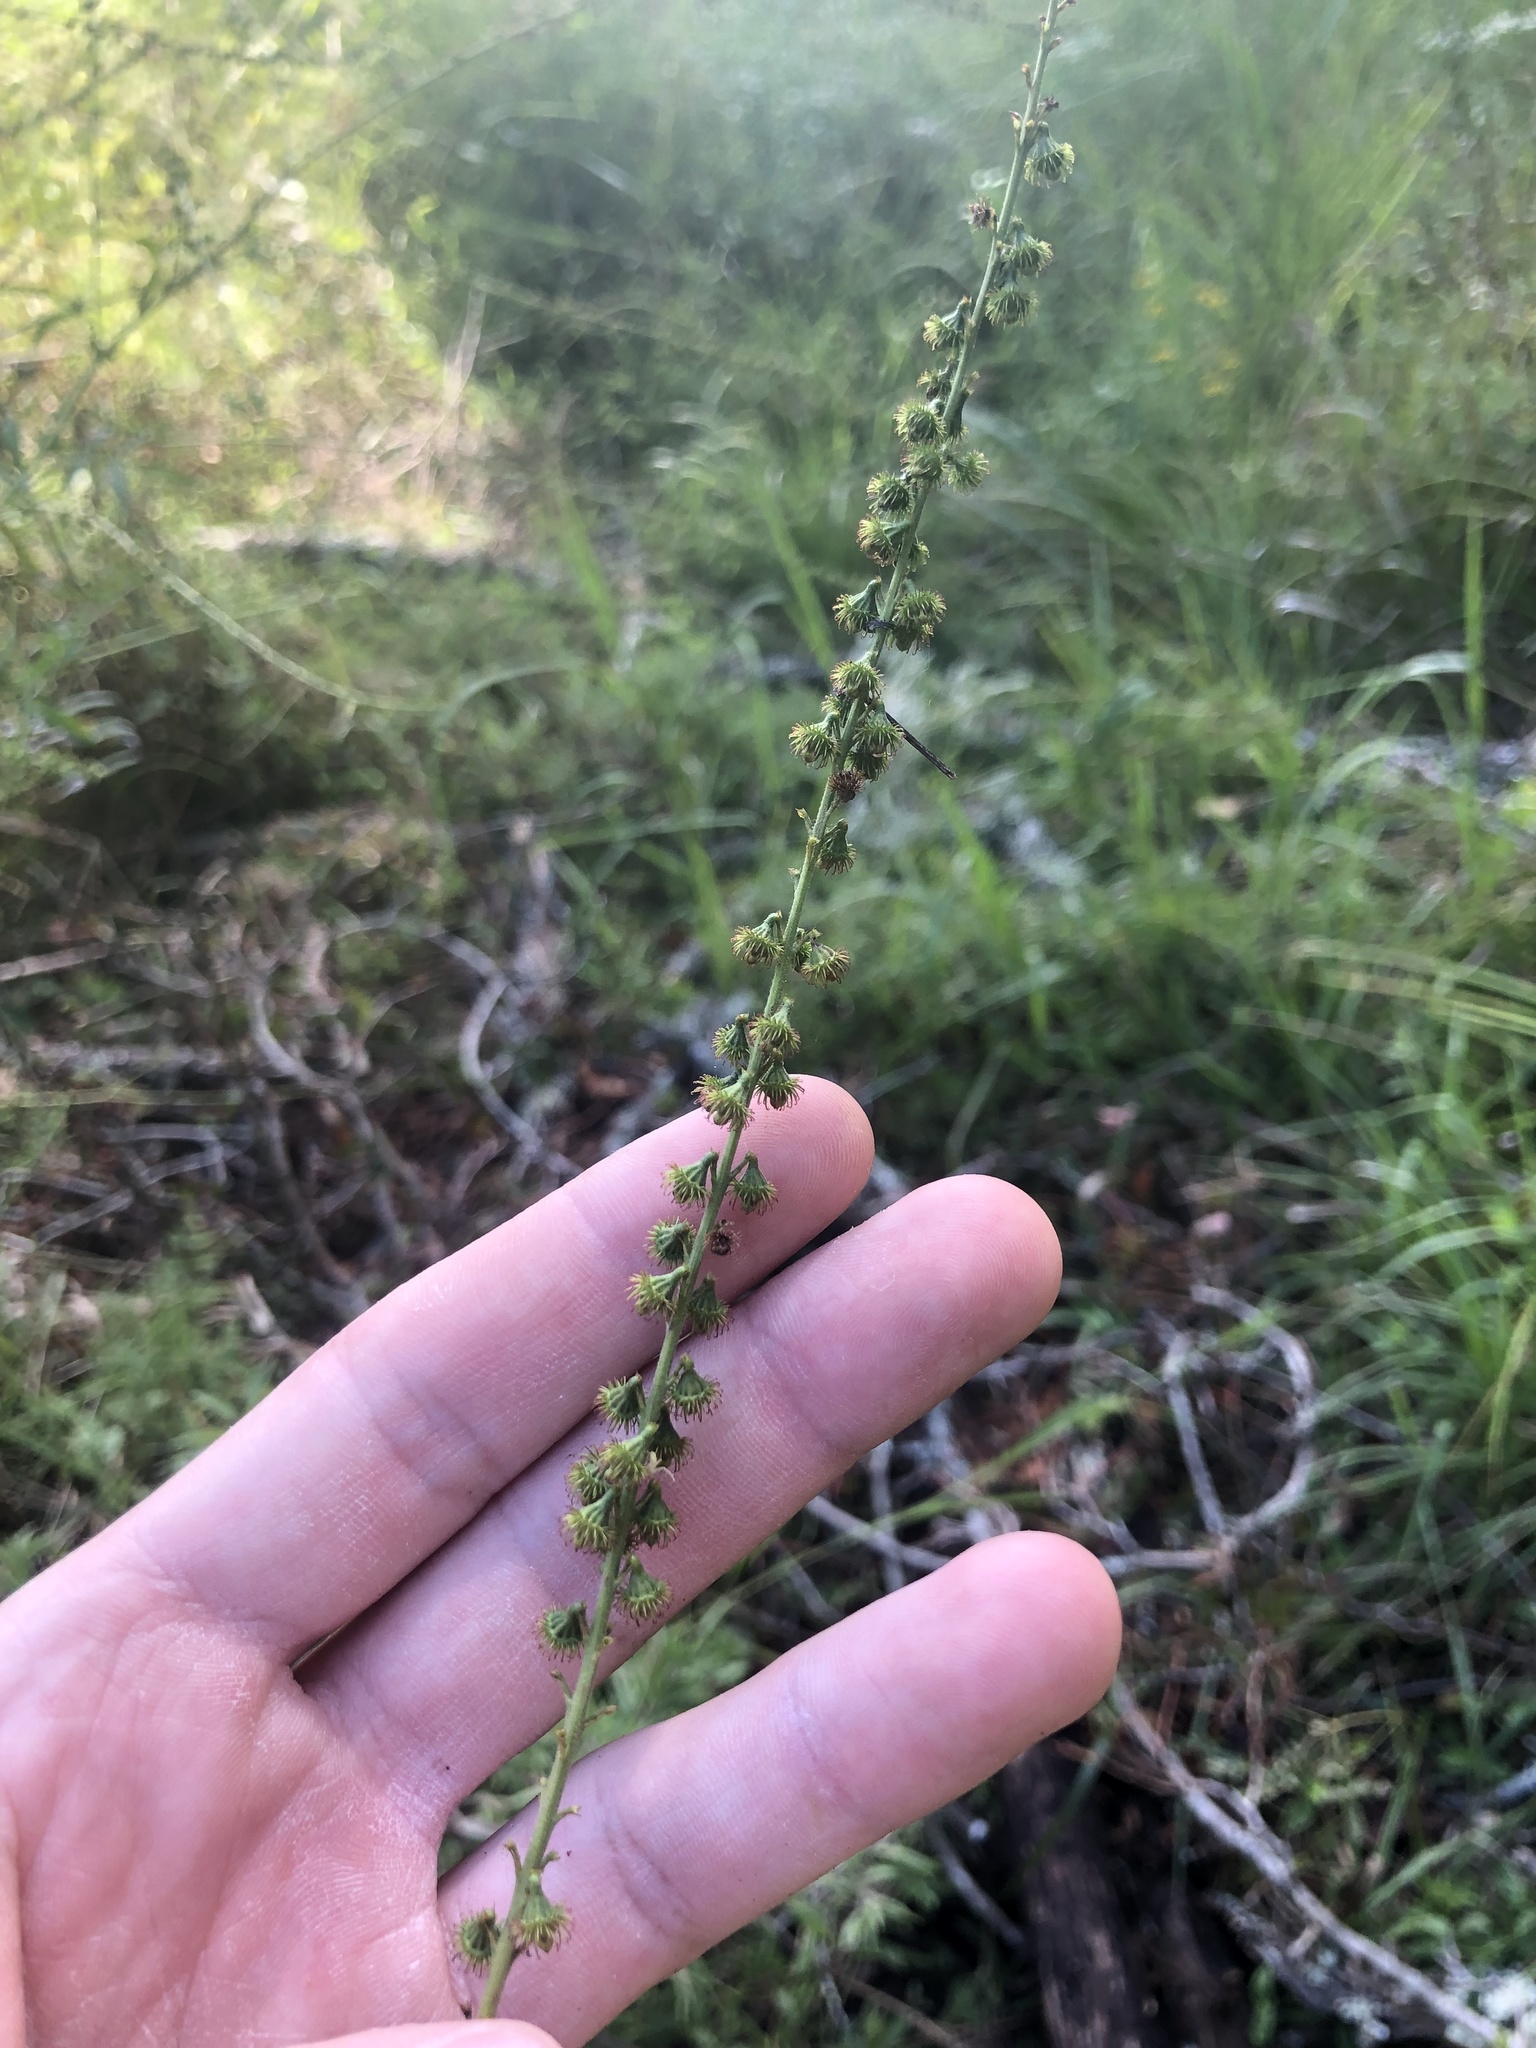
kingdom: Plantae
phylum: Tracheophyta
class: Magnoliopsida
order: Rosales
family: Rosaceae
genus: Agrimonia
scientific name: Agrimonia parviflora
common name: Harvest-lice
